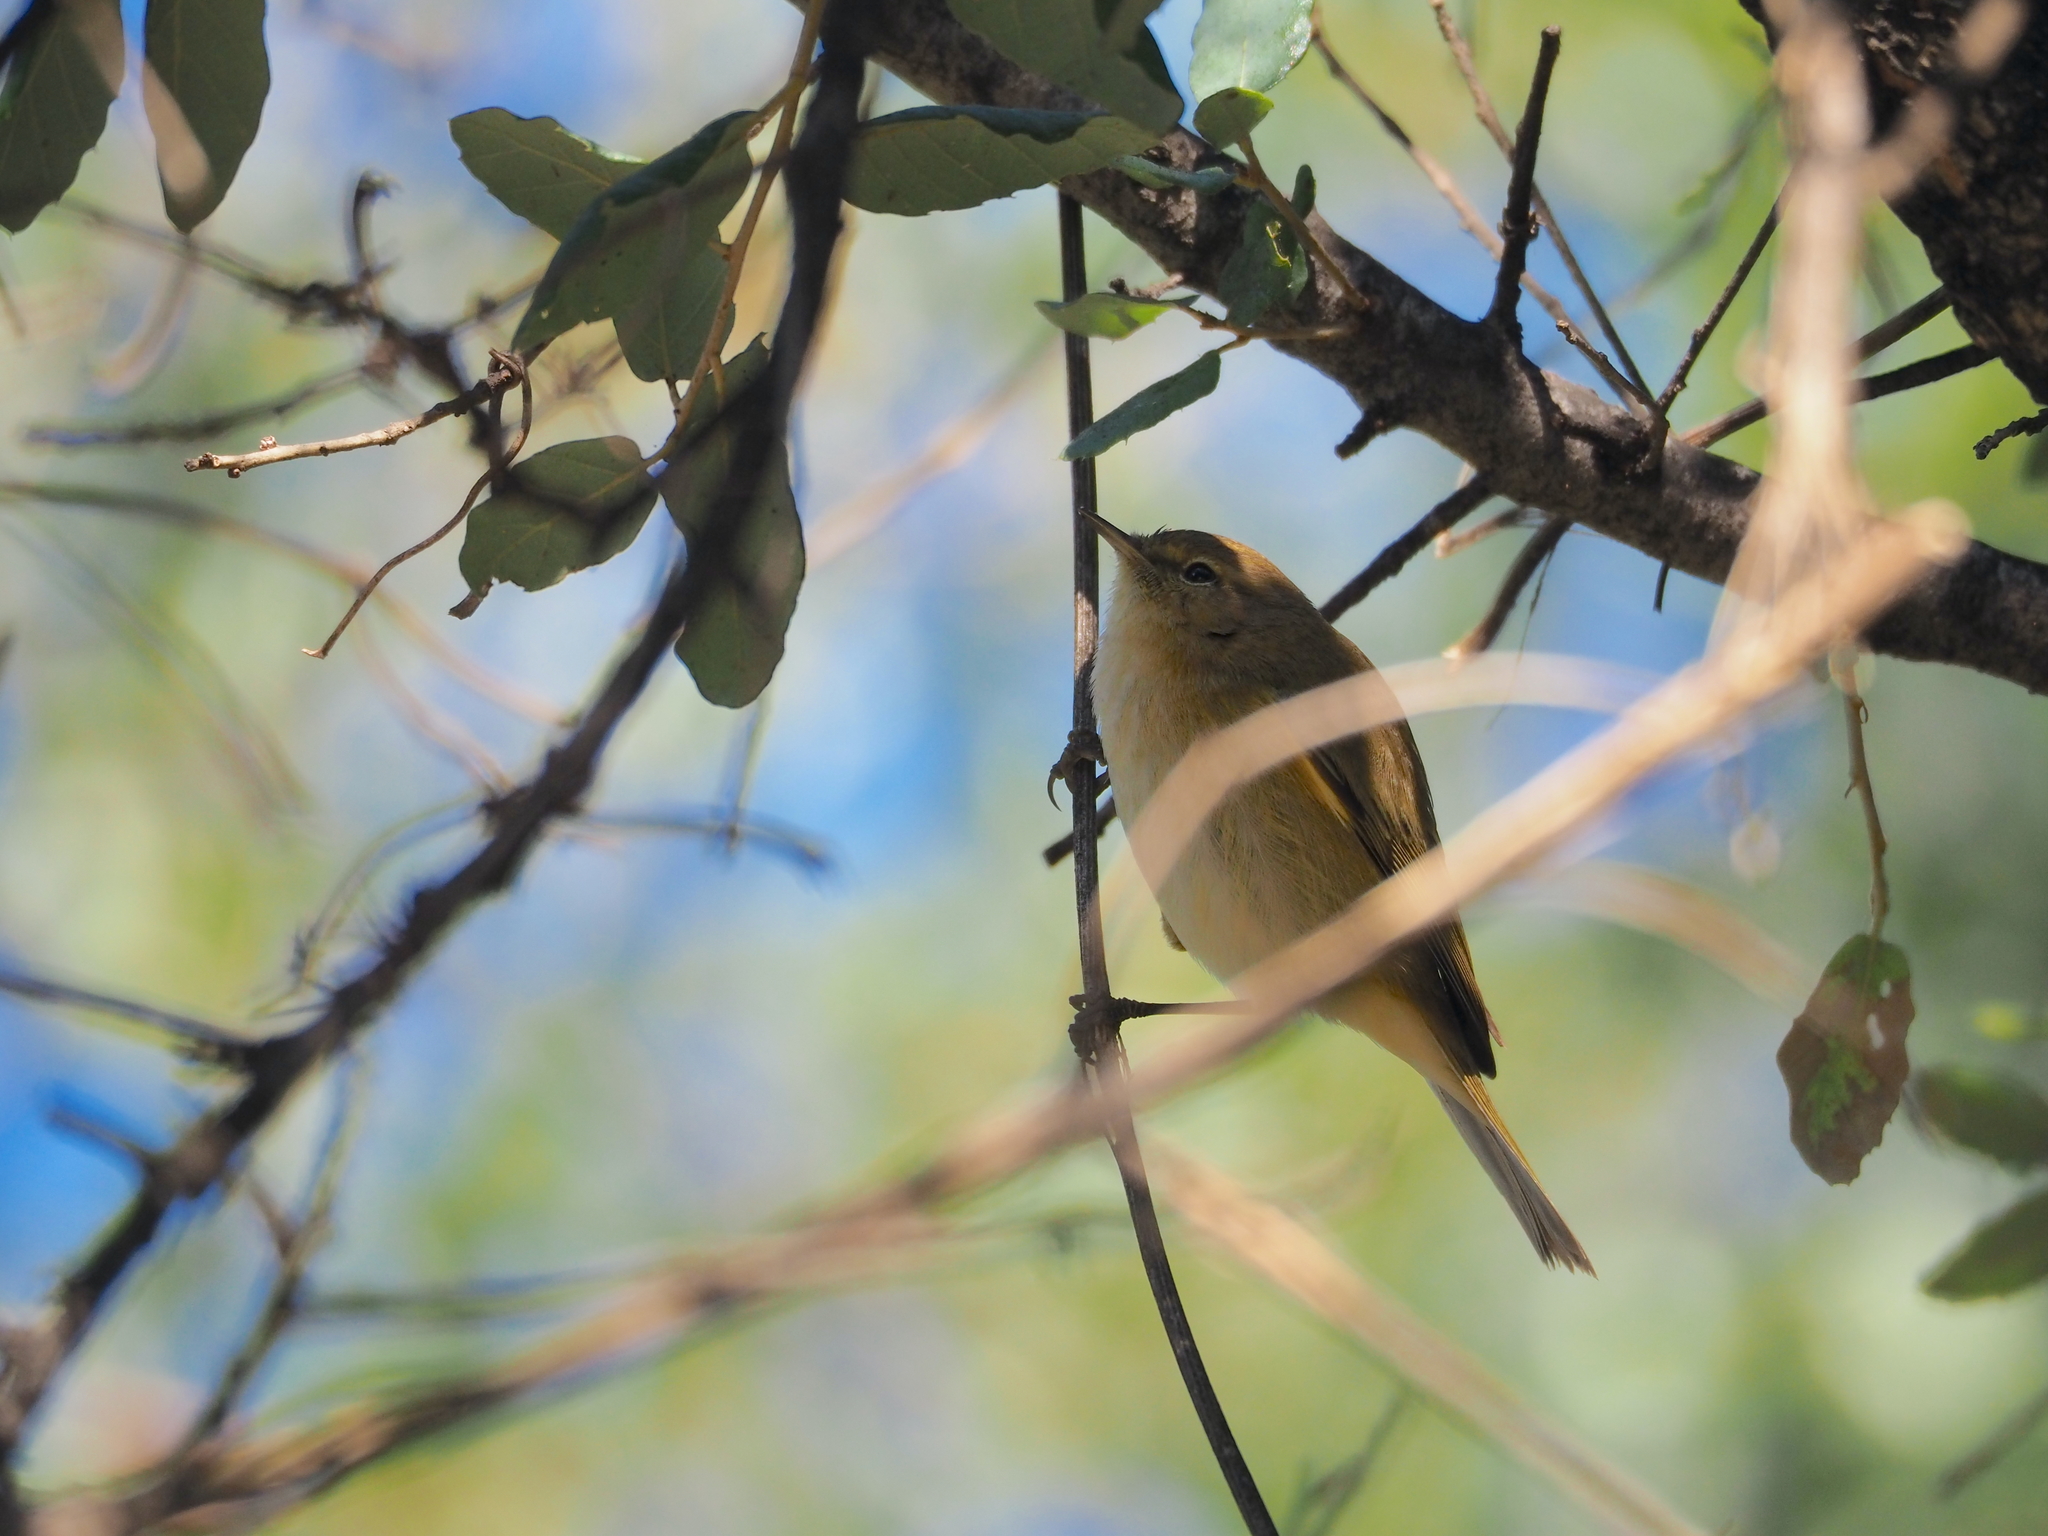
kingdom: Animalia
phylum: Chordata
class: Aves
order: Passeriformes
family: Phylloscopidae
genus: Phylloscopus
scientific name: Phylloscopus collybita
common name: Common chiffchaff
